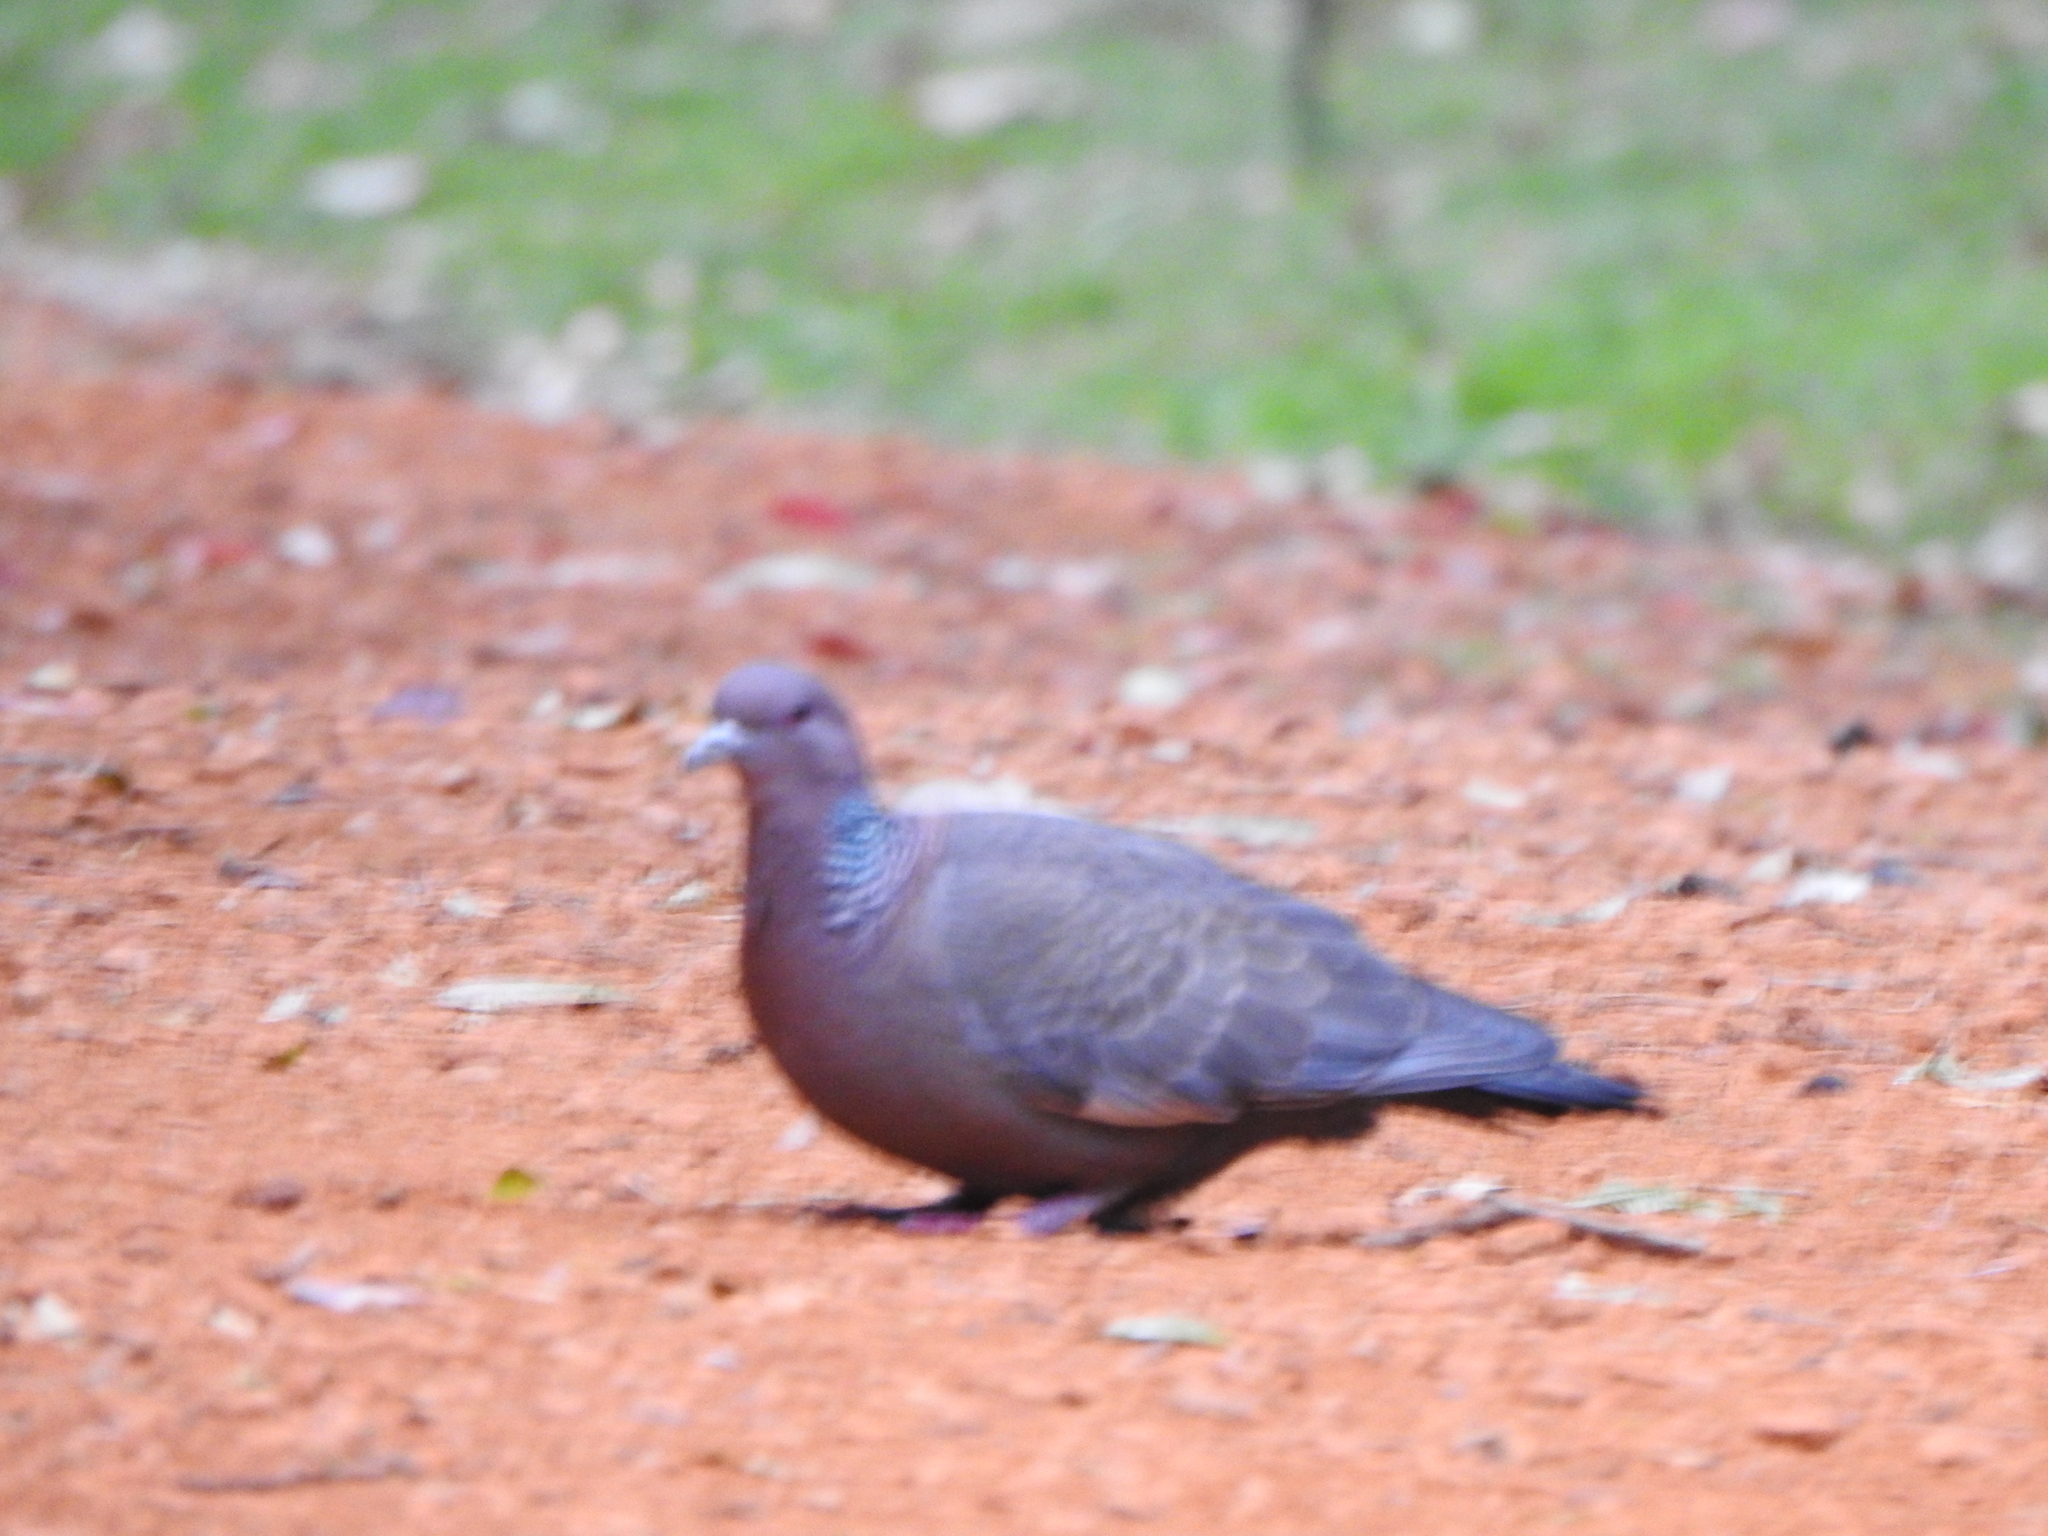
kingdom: Animalia
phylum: Chordata
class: Aves
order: Columbiformes
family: Columbidae
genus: Patagioenas
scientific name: Patagioenas picazuro
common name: Picazuro pigeon
